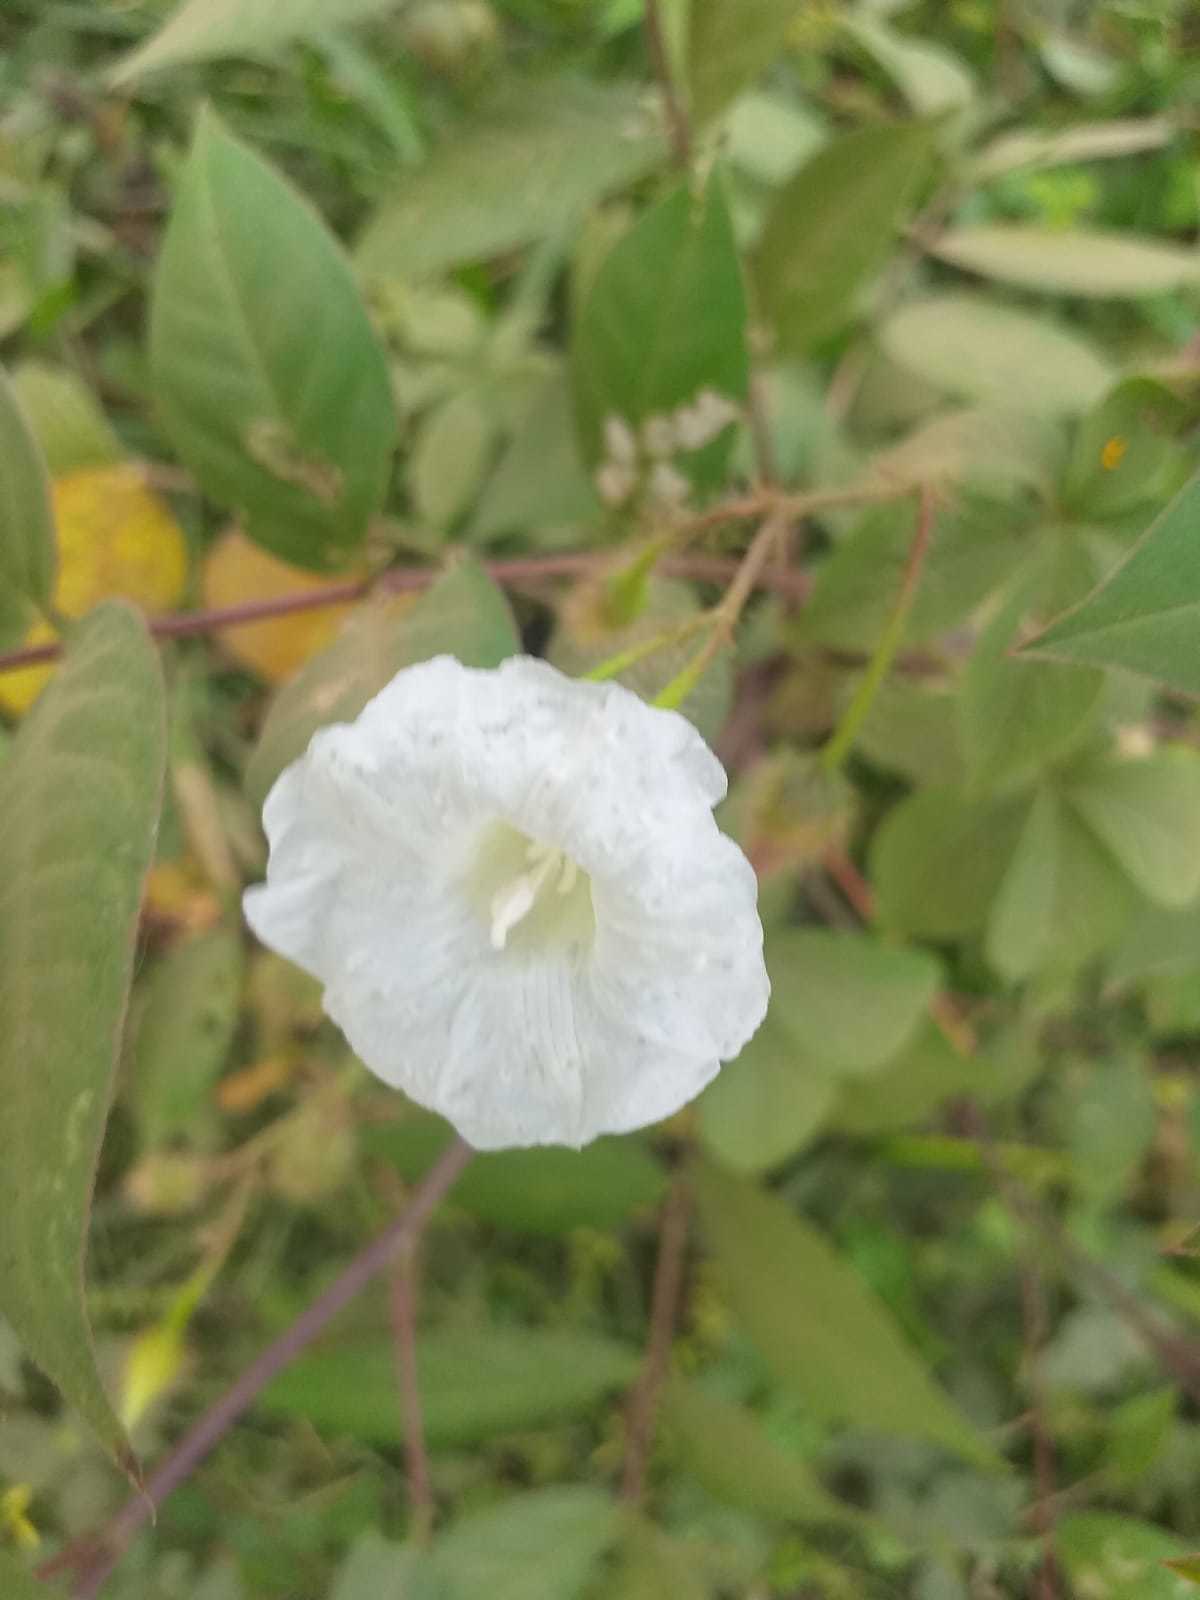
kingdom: Plantae
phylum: Tracheophyta
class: Magnoliopsida
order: Solanales
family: Convolvulaceae
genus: Distimake
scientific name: Distimake aegyptius
